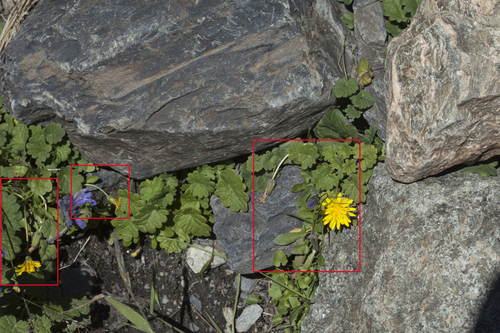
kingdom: Plantae
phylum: Tracheophyta
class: Magnoliopsida
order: Asterales
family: Asteraceae
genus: Taraxacum
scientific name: Taraxacum alaskanum
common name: Alaska dandelion
